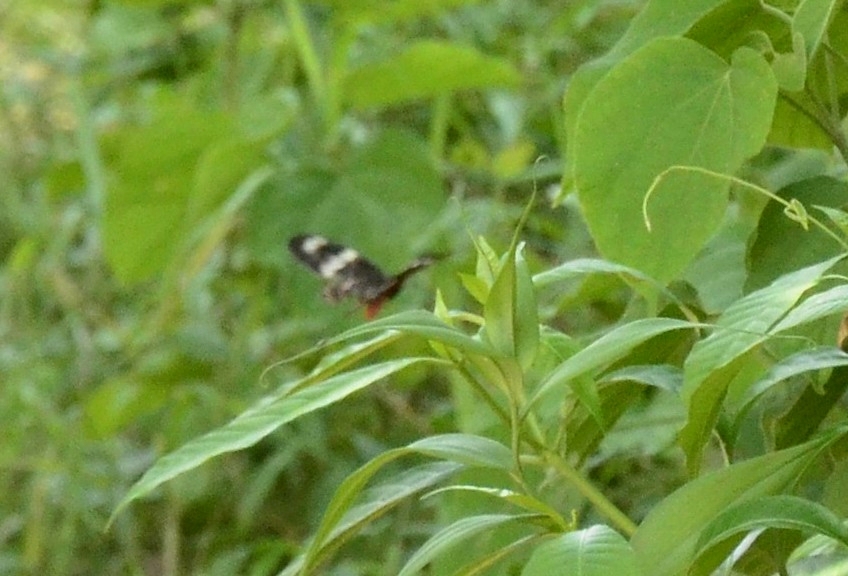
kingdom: Animalia
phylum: Arthropoda
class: Insecta
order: Lepidoptera
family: Papilionidae
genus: Pachliopta
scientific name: Pachliopta hector
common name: Crimson rose
